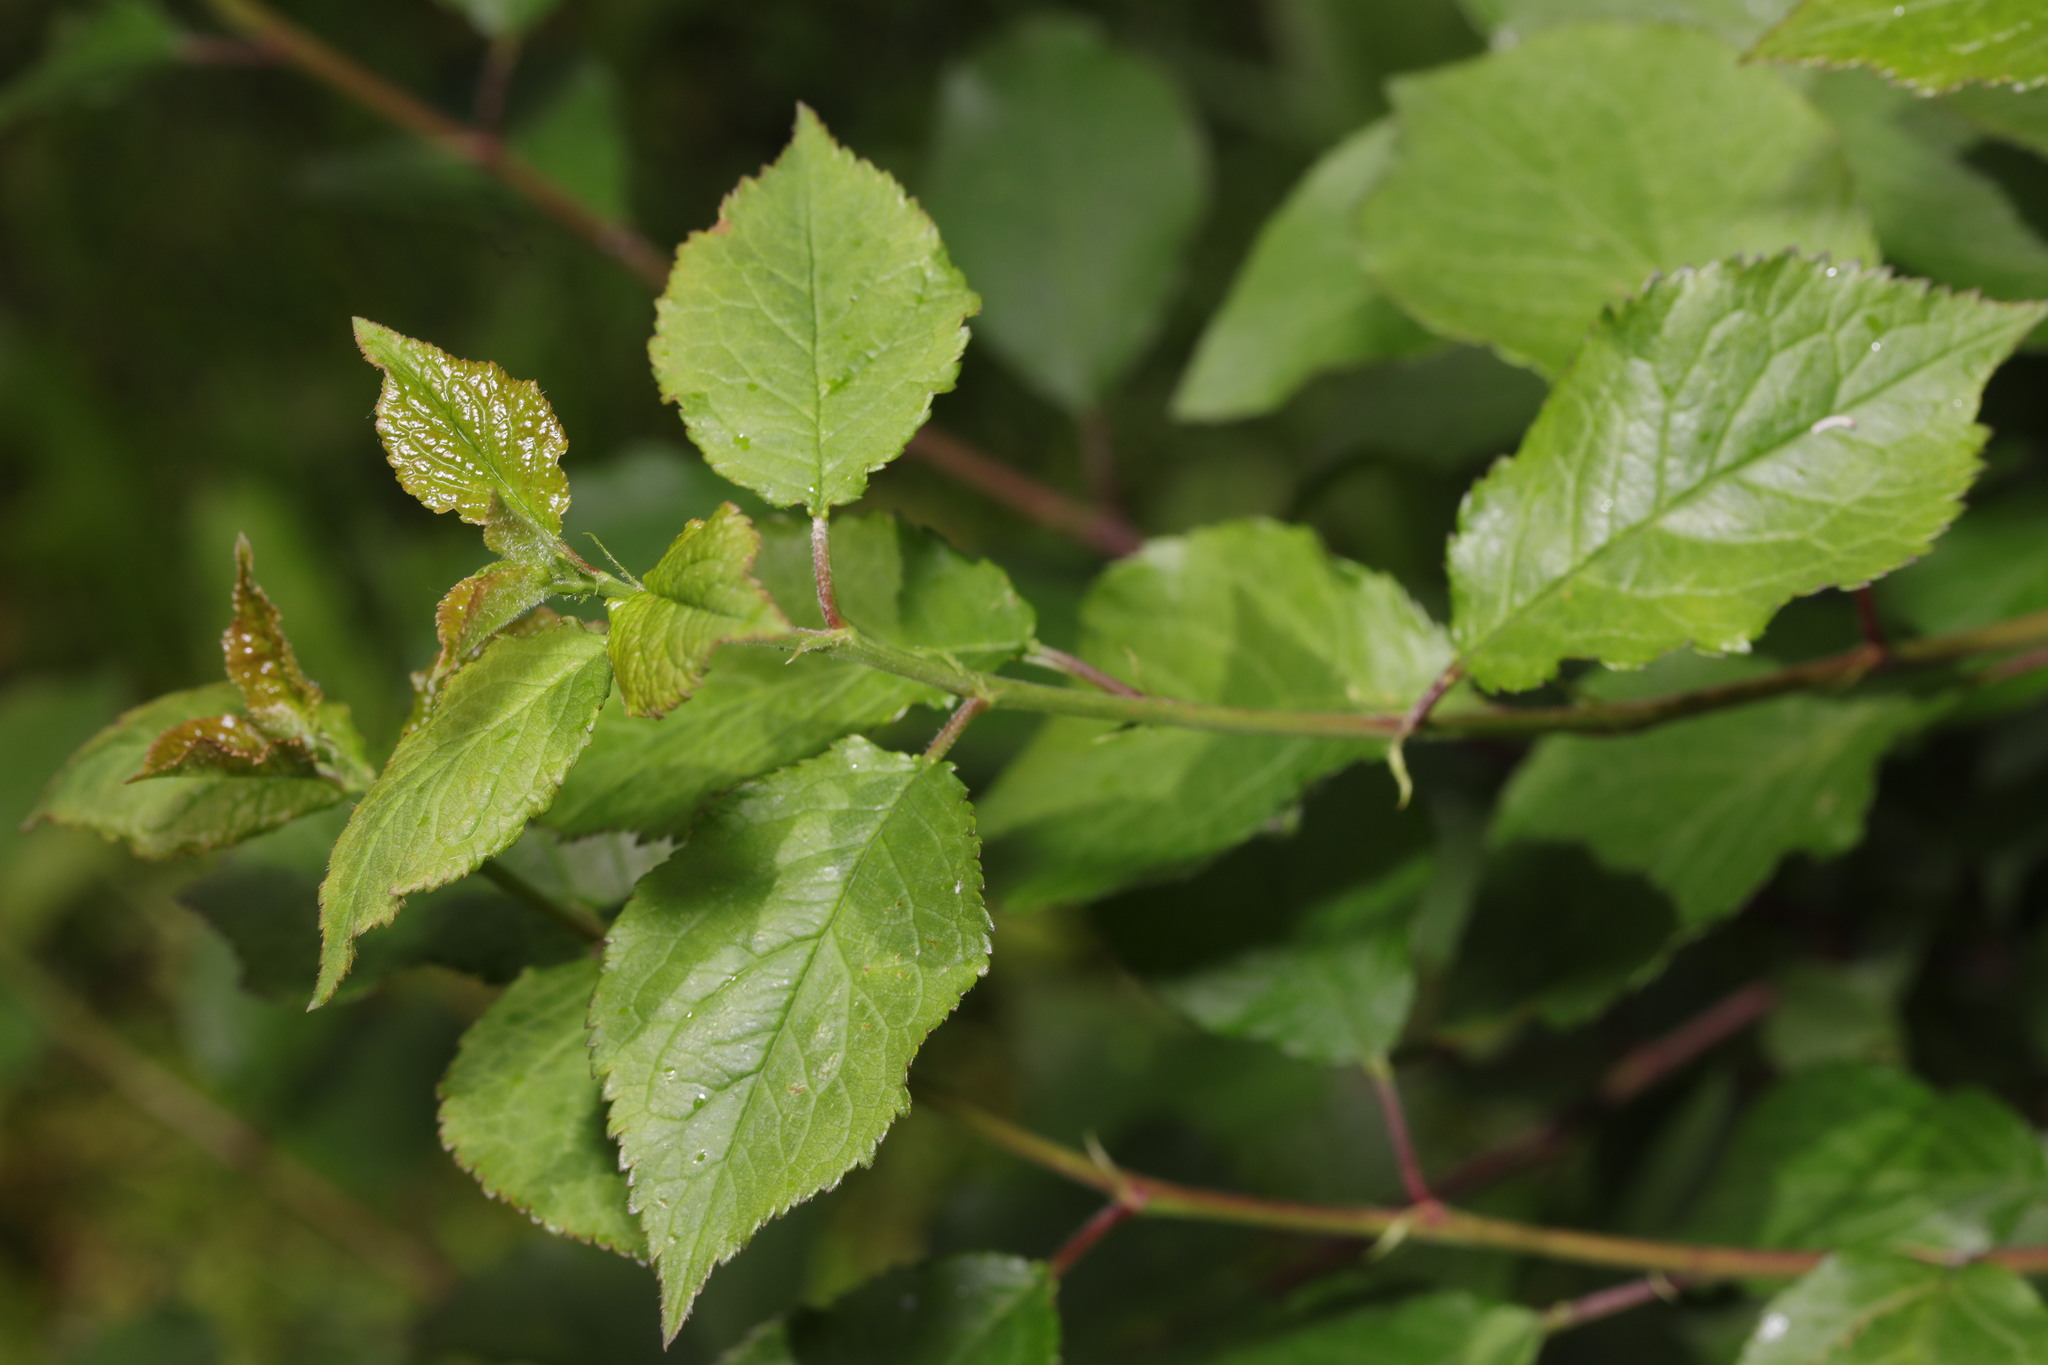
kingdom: Plantae
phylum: Tracheophyta
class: Magnoliopsida
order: Rosales
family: Rosaceae
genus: Prunus
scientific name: Prunus cerasifera
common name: Cherry plum
